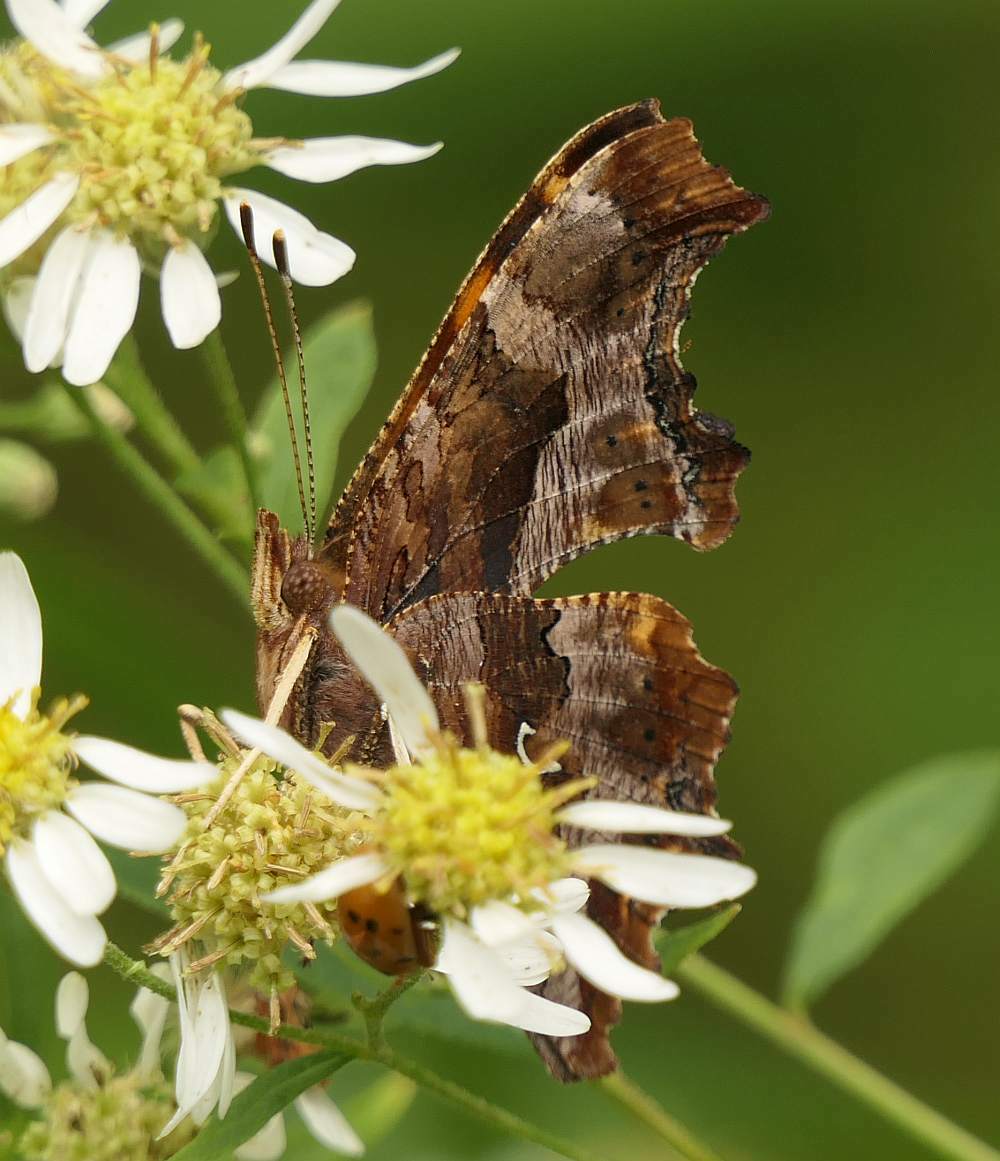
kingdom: Animalia
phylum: Arthropoda
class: Insecta
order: Lepidoptera
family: Nymphalidae
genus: Polygonia
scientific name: Polygonia comma
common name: Eastern comma
